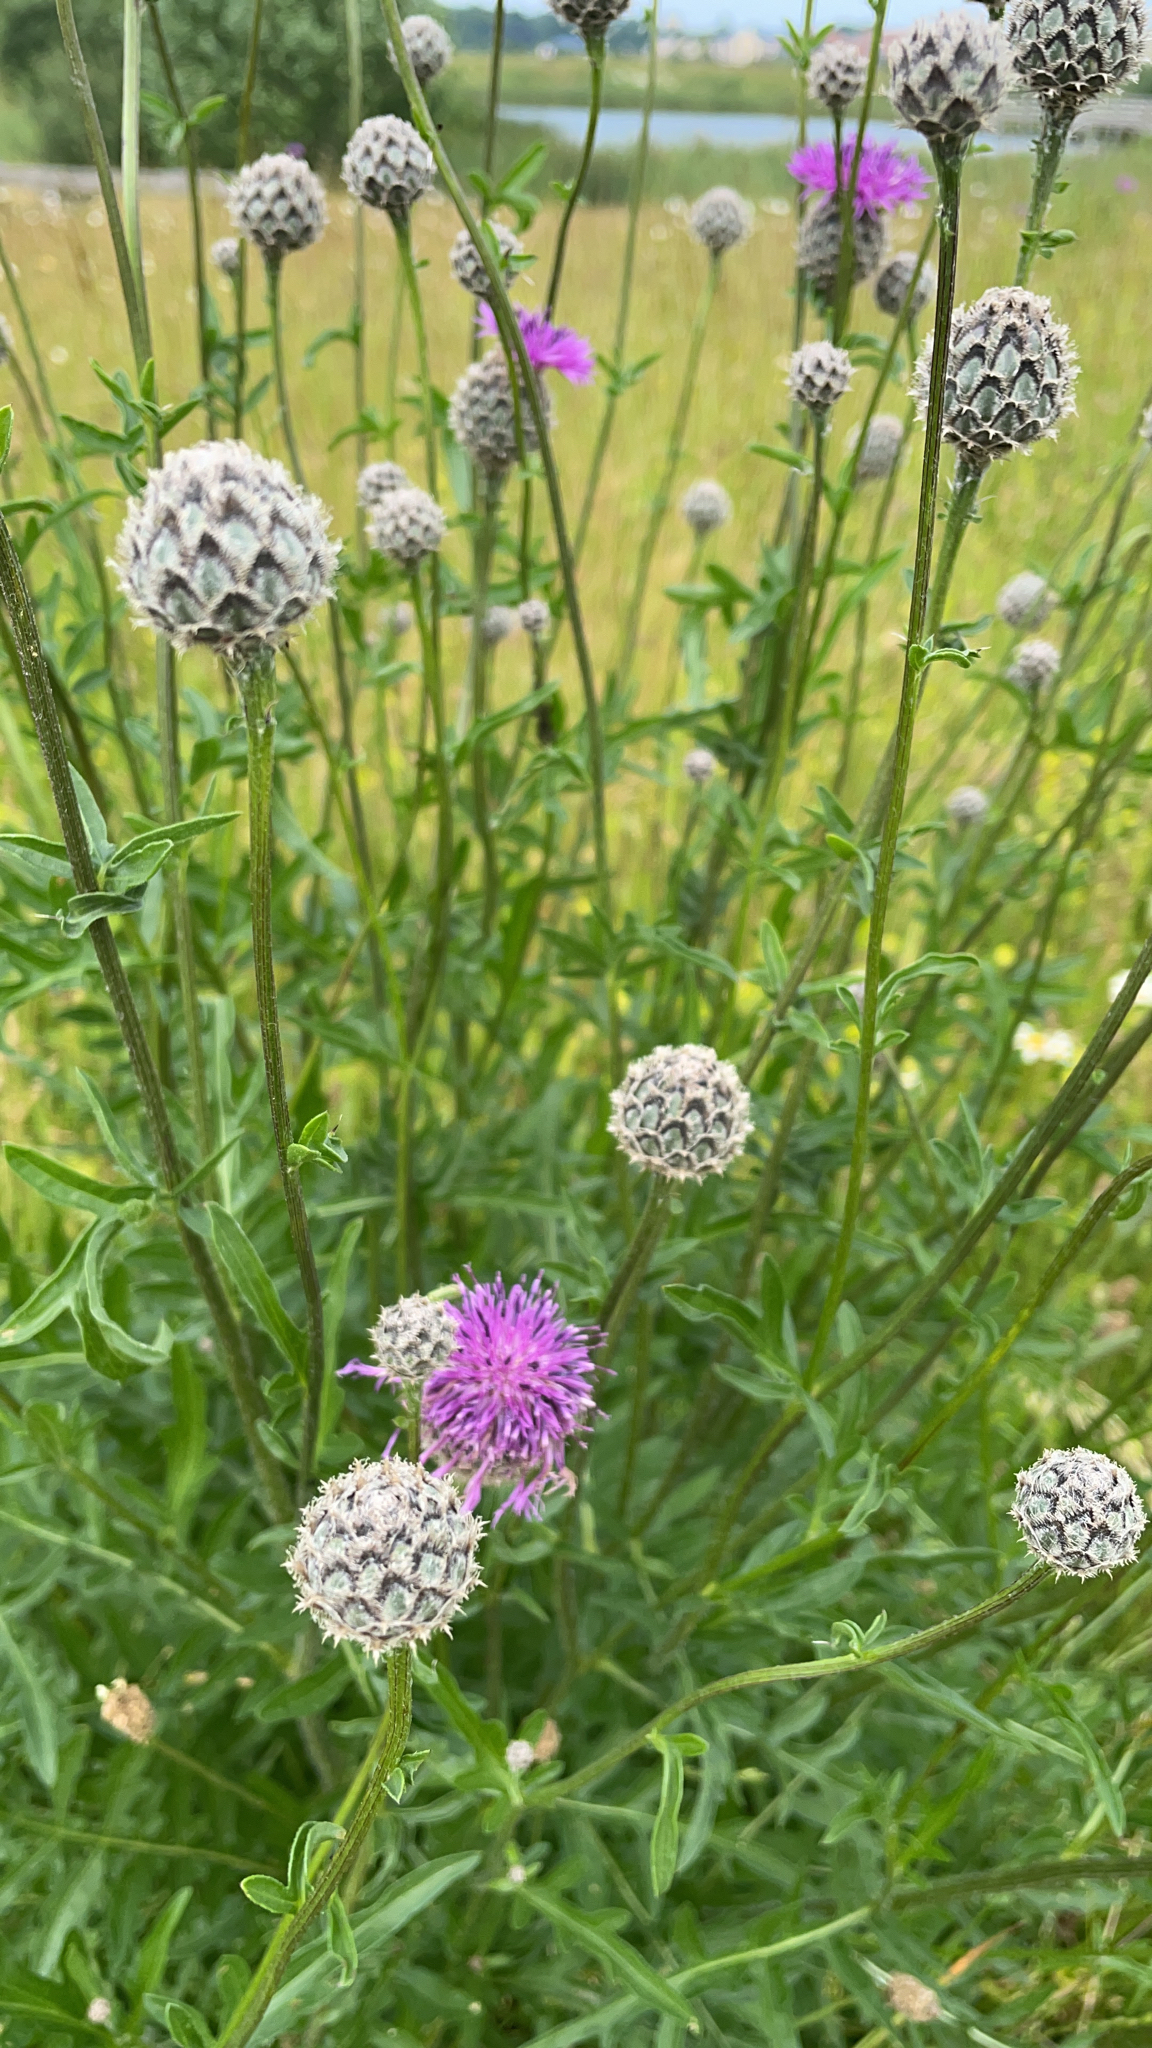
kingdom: Plantae
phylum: Tracheophyta
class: Magnoliopsida
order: Asterales
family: Asteraceae
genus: Centaurea
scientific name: Centaurea scabiosa
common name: Greater knapweed
